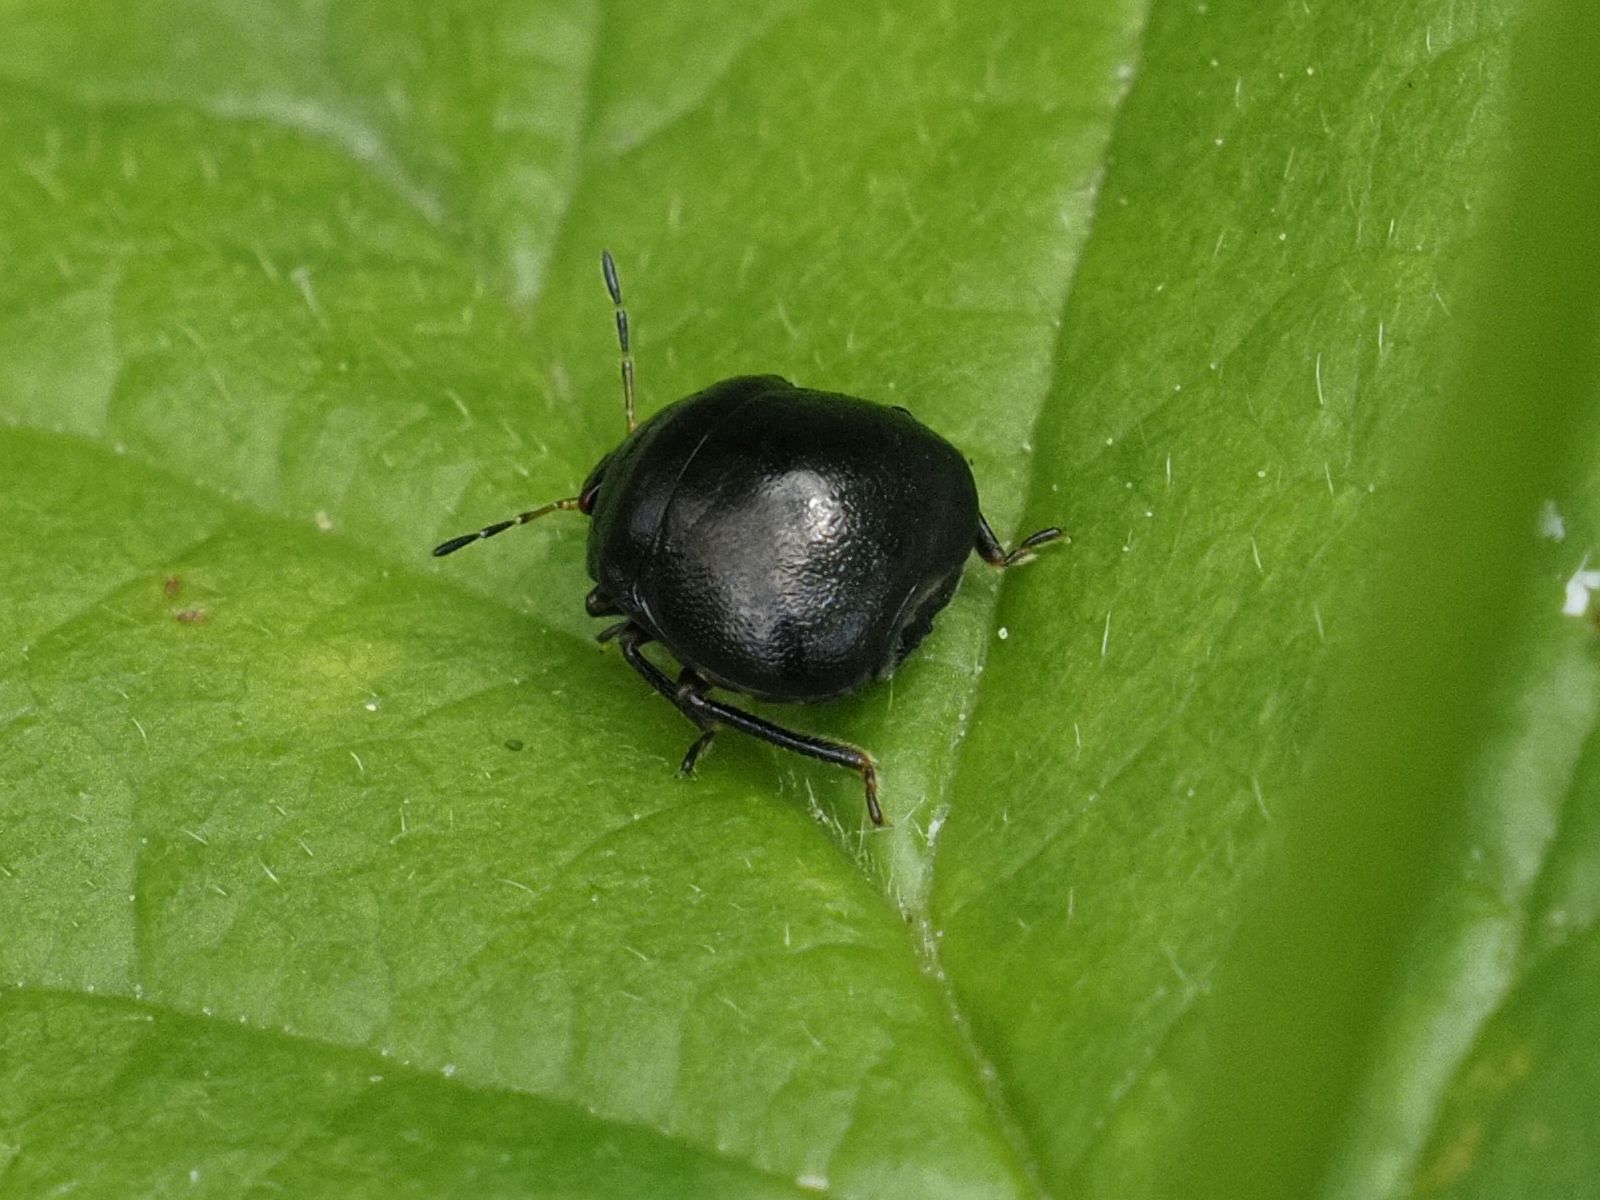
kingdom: Animalia
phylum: Arthropoda
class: Insecta
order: Hemiptera
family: Plataspidae
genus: Coptosoma
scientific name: Coptosoma scutellatum
